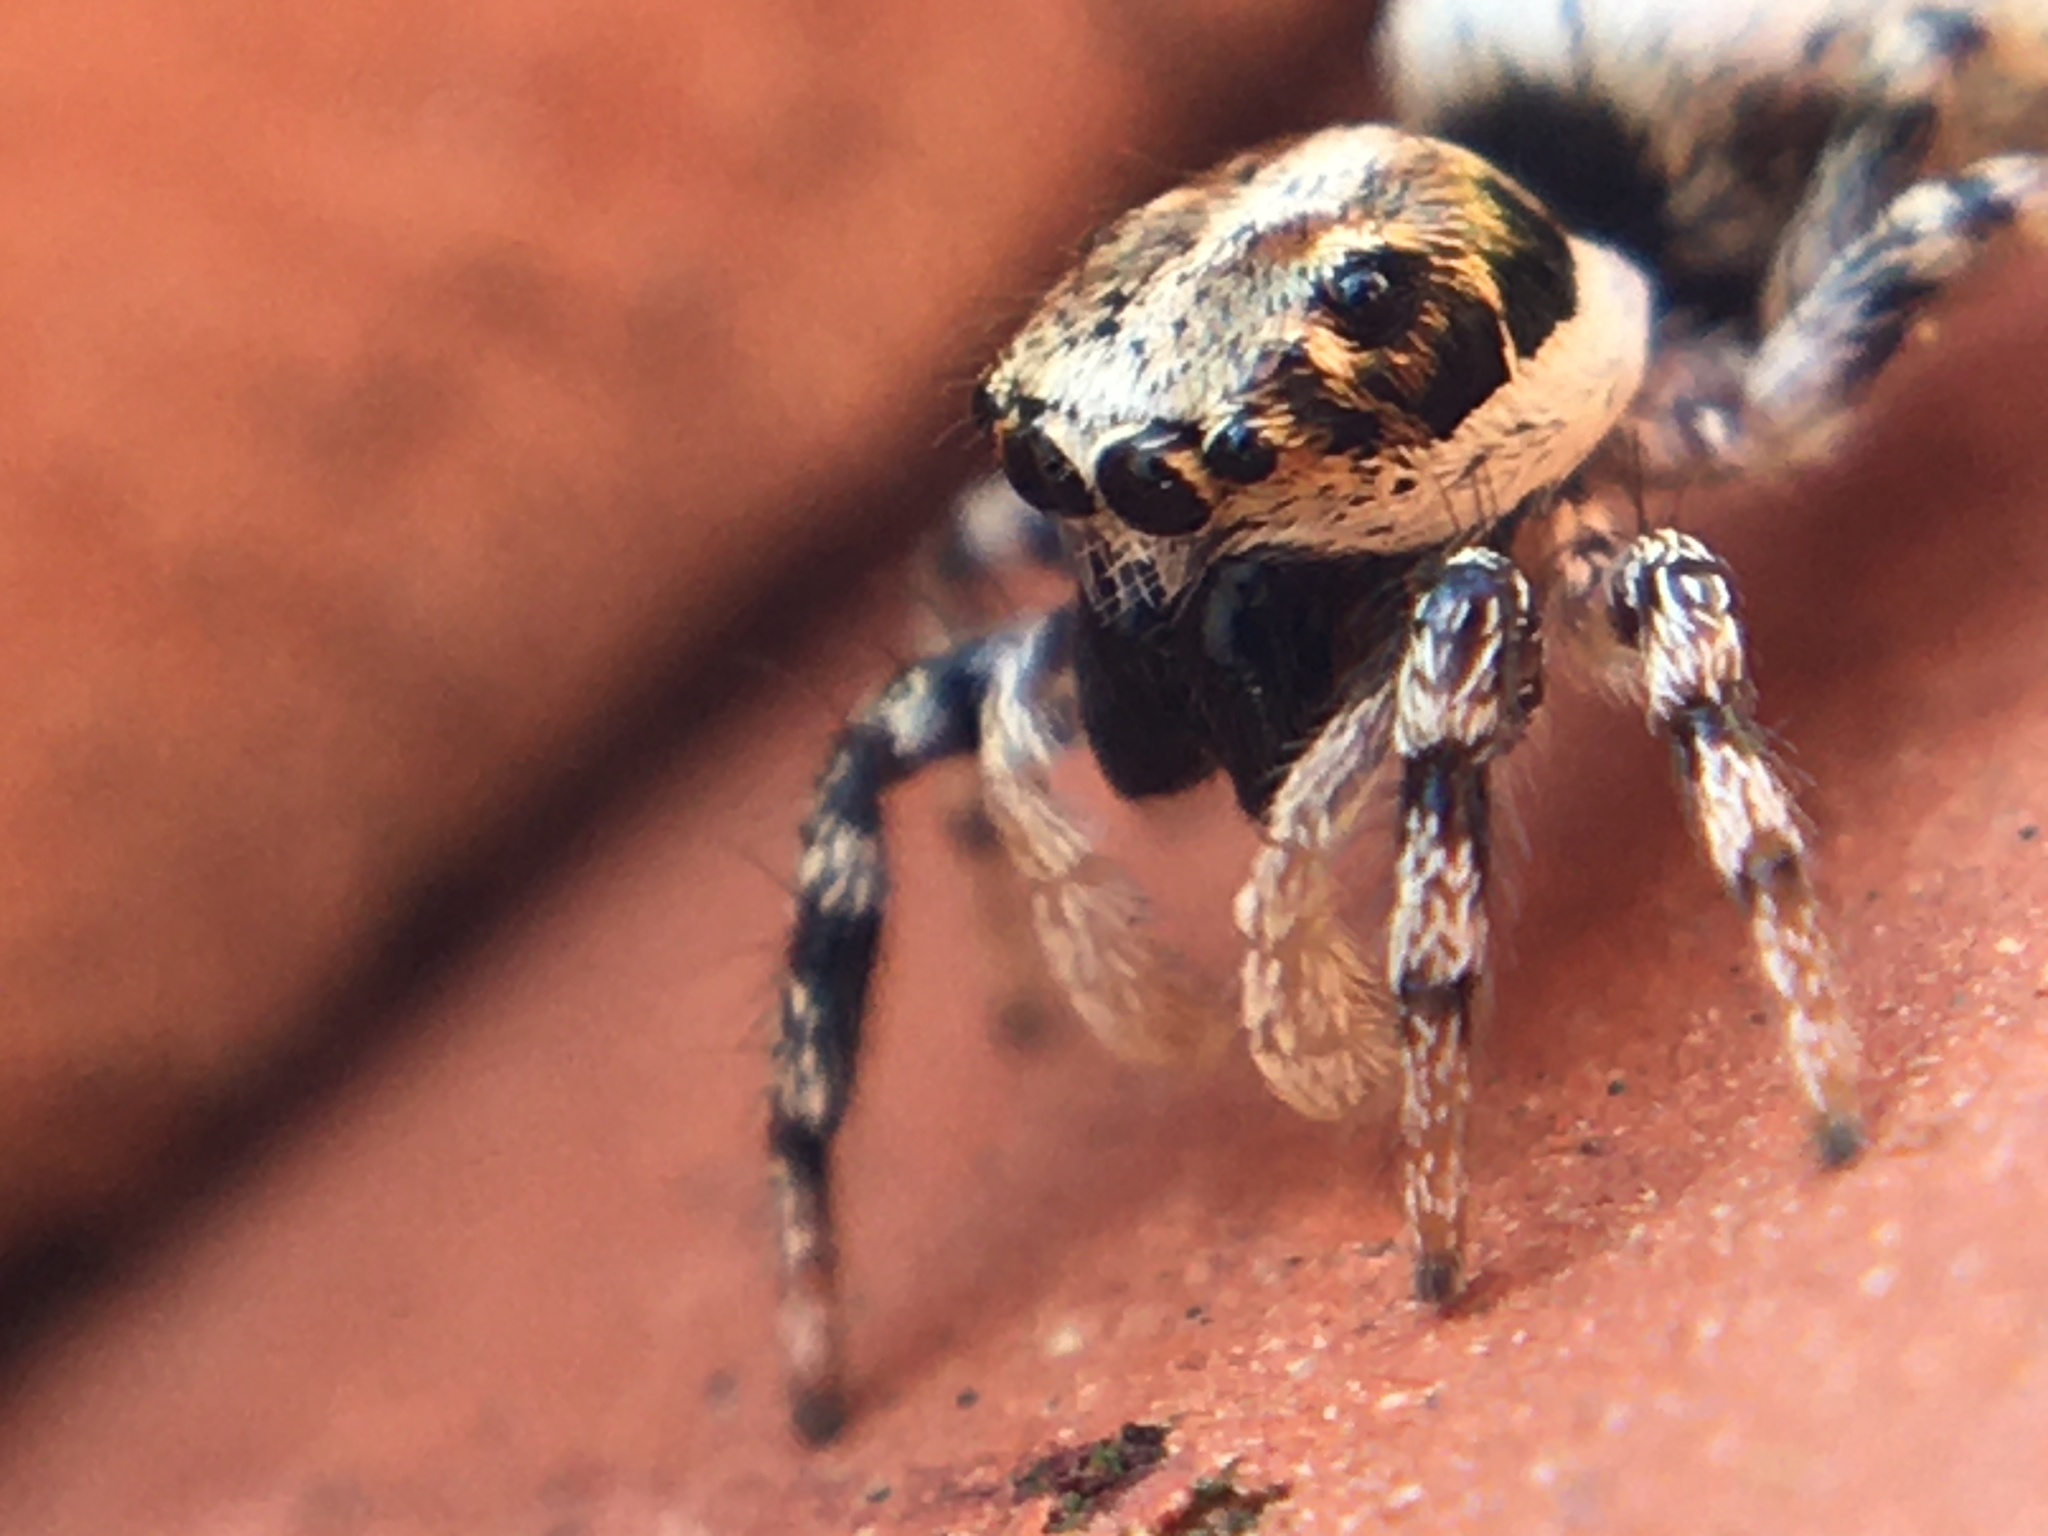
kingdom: Animalia
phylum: Arthropoda
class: Arachnida
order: Araneae
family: Salticidae
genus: Salticus
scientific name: Salticus mutabilis
